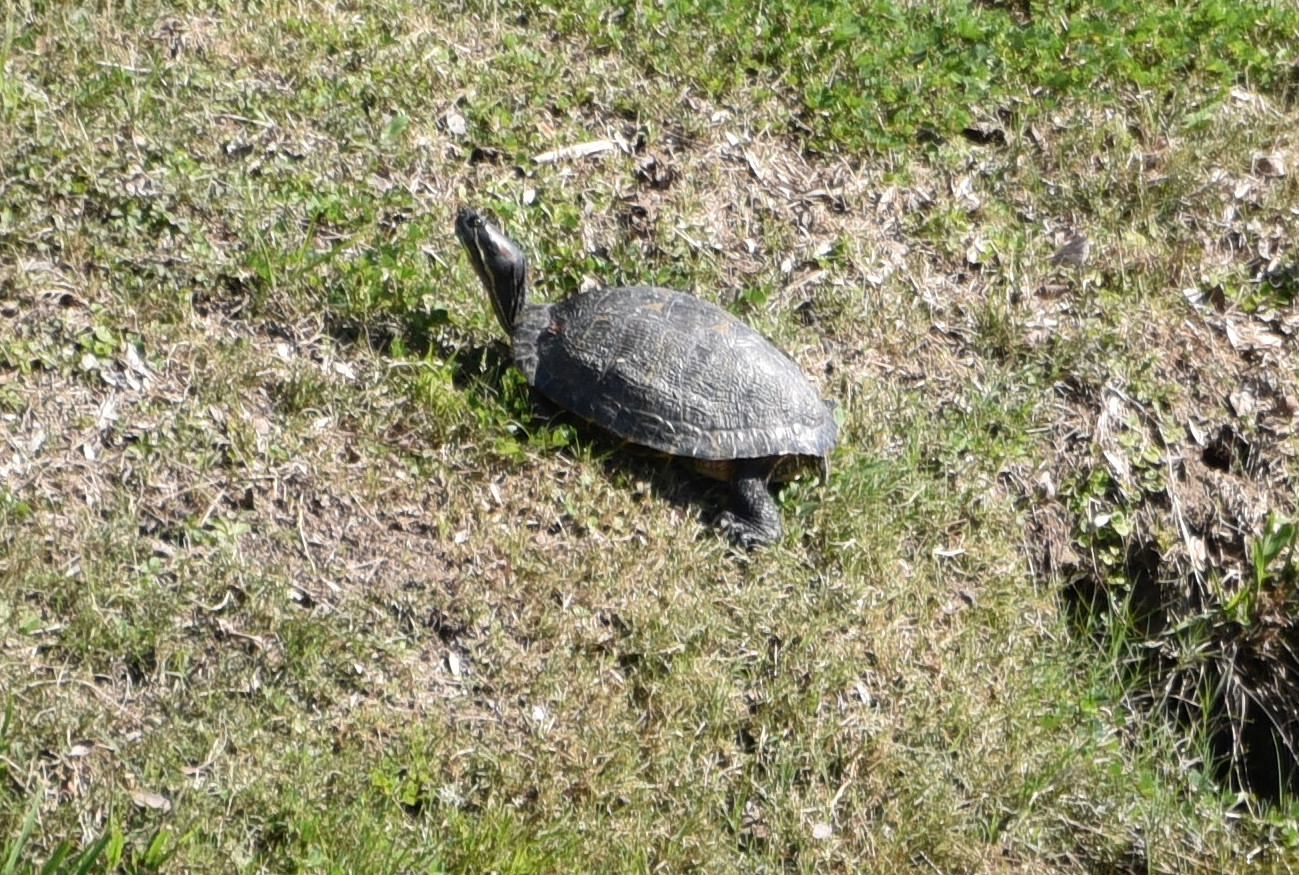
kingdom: Animalia
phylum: Chordata
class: Testudines
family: Emydidae
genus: Trachemys
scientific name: Trachemys scripta
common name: Slider
